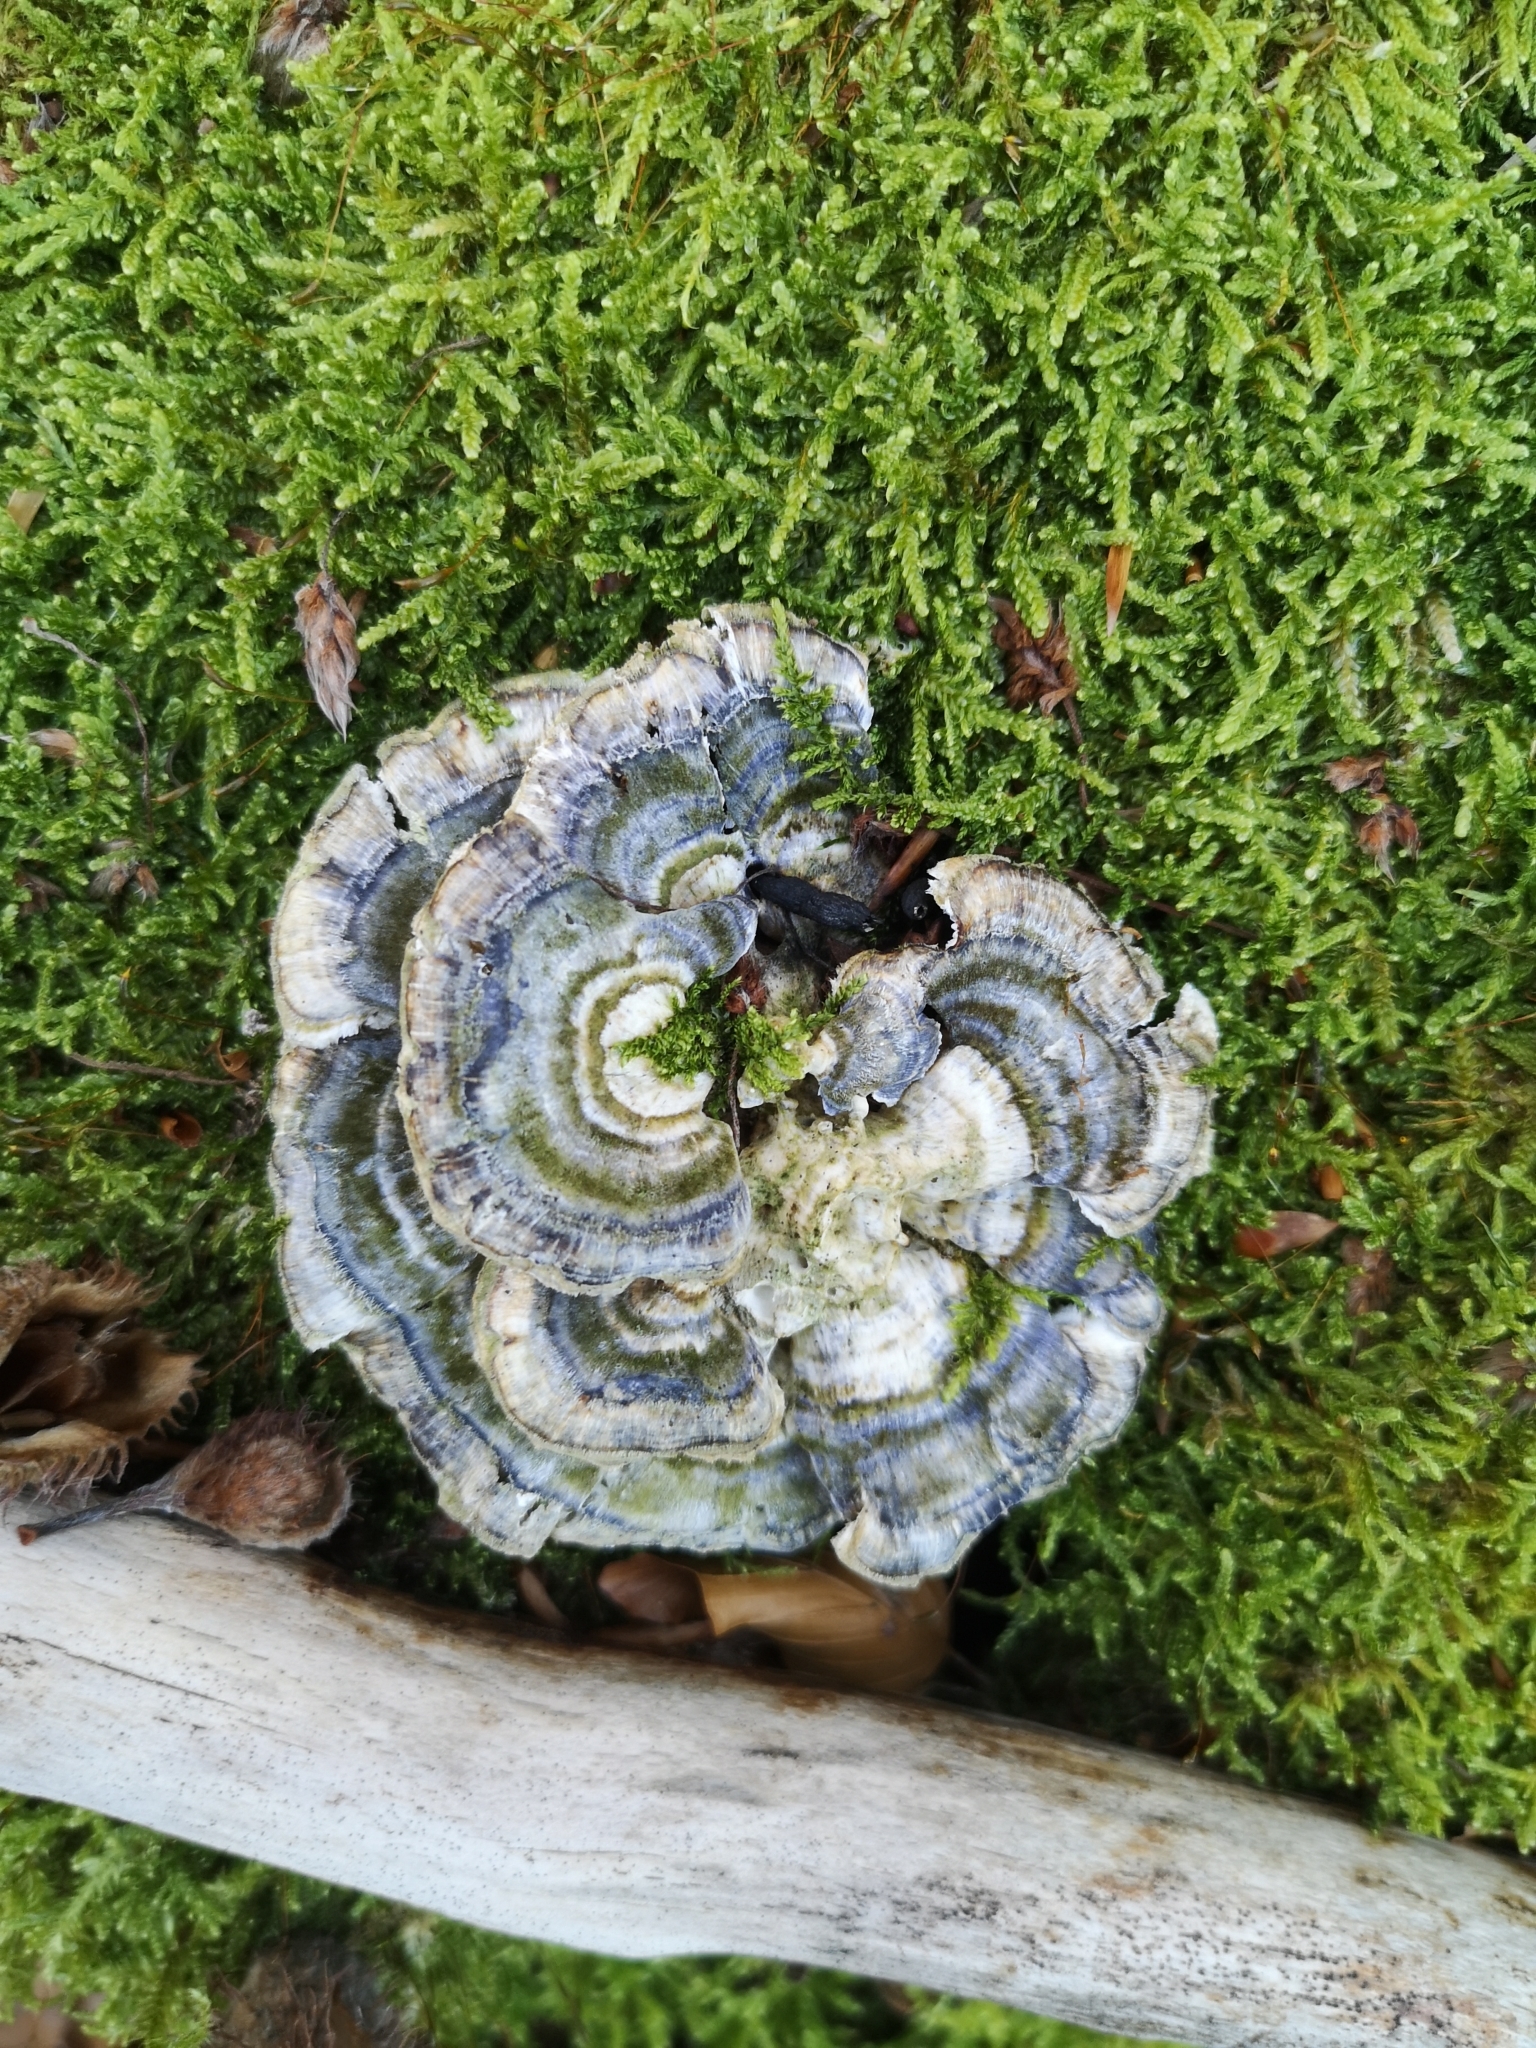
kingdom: Fungi
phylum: Basidiomycota
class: Agaricomycetes
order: Polyporales
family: Polyporaceae
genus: Trametes
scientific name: Trametes versicolor
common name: Turkeytail
